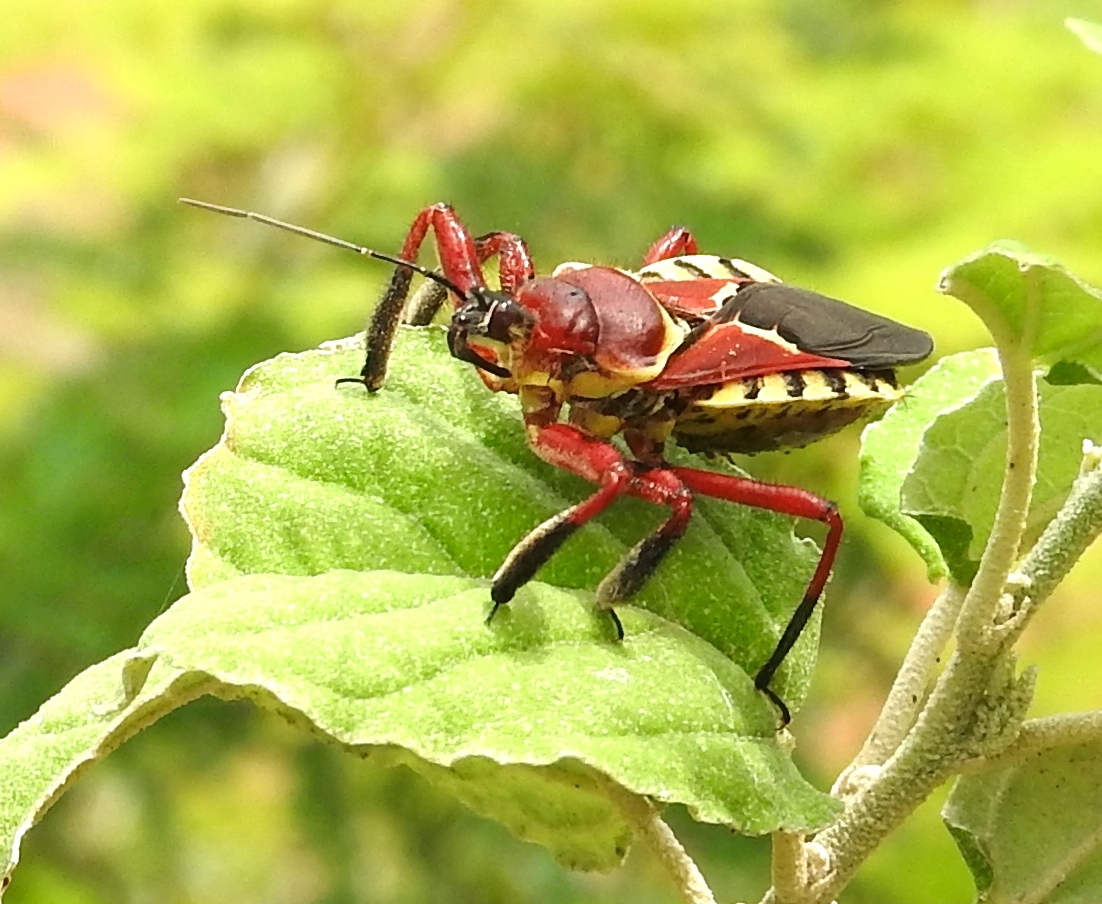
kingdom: Animalia
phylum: Arthropoda
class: Insecta
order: Hemiptera
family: Reduviidae
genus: Apiomerus
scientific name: Apiomerus flaviventris
